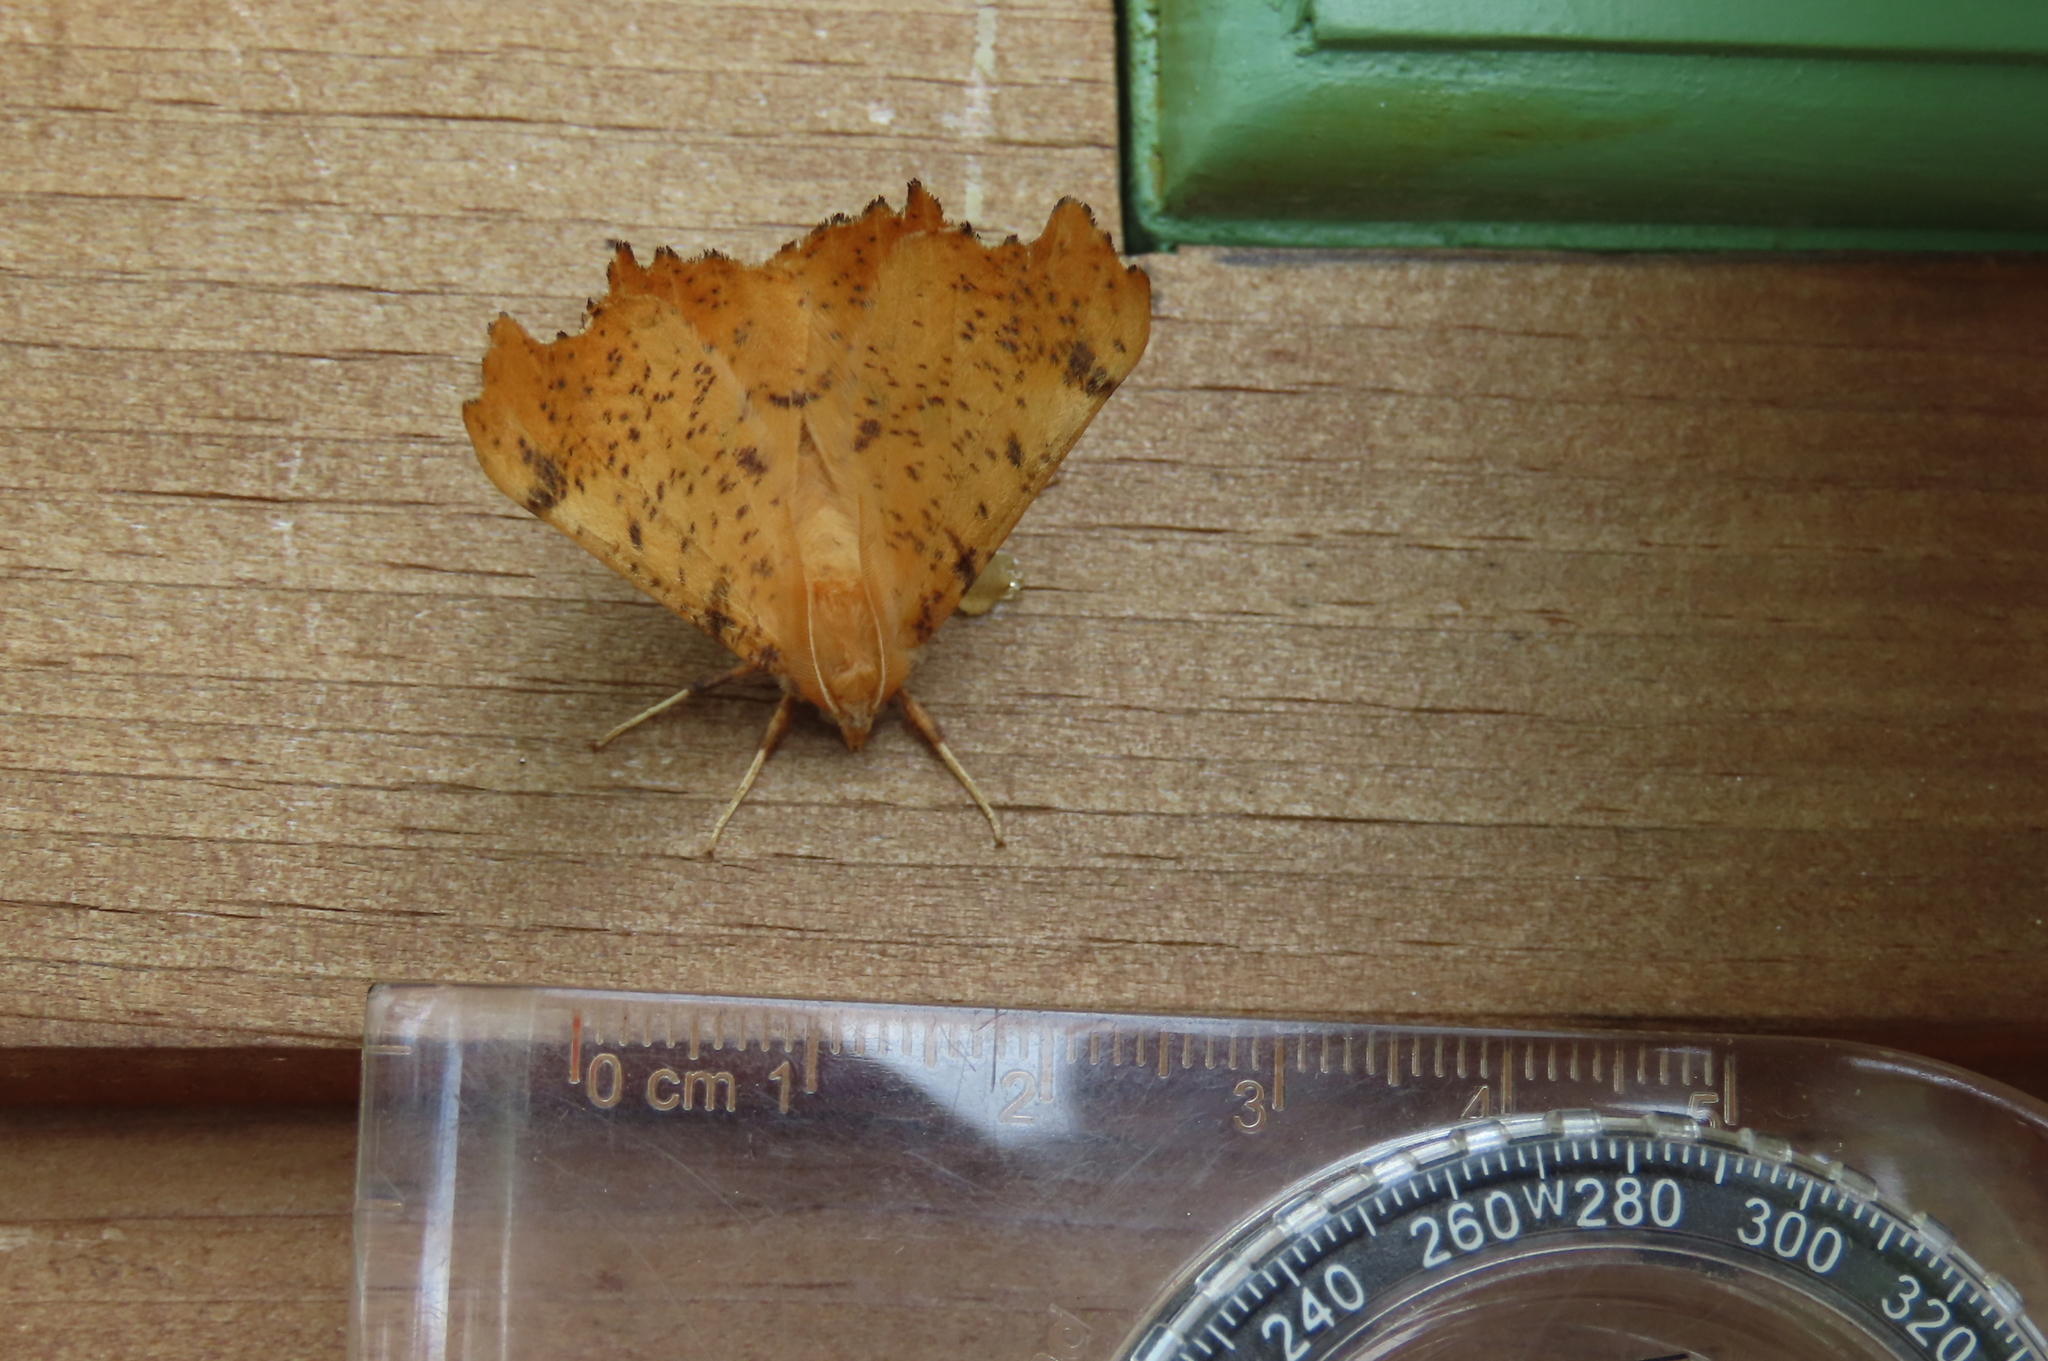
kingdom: Animalia
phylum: Arthropoda
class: Insecta
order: Lepidoptera
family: Geometridae
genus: Ennomos
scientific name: Ennomos magnaria
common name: Maple spanworm
